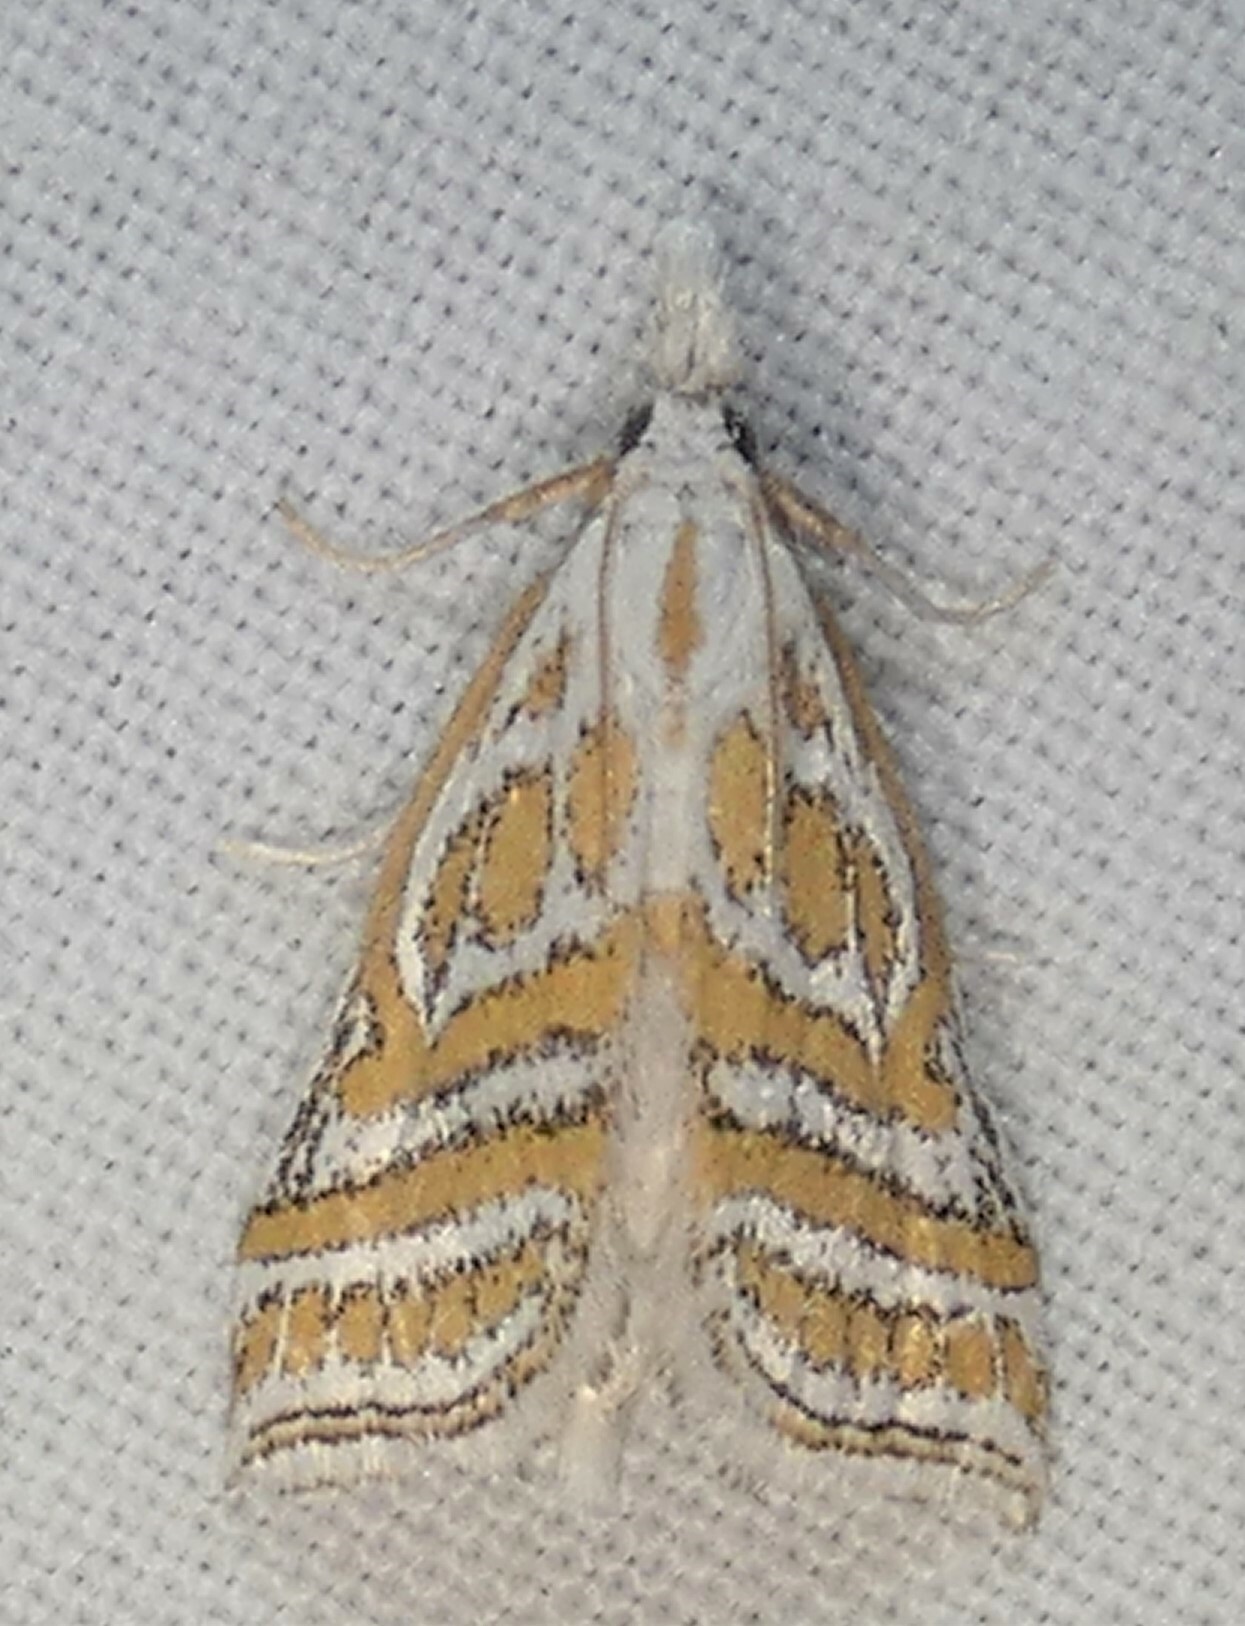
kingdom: Animalia
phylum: Arthropoda
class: Insecta
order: Lepidoptera
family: Crambidae
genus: Leptosteges
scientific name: Leptosteges
